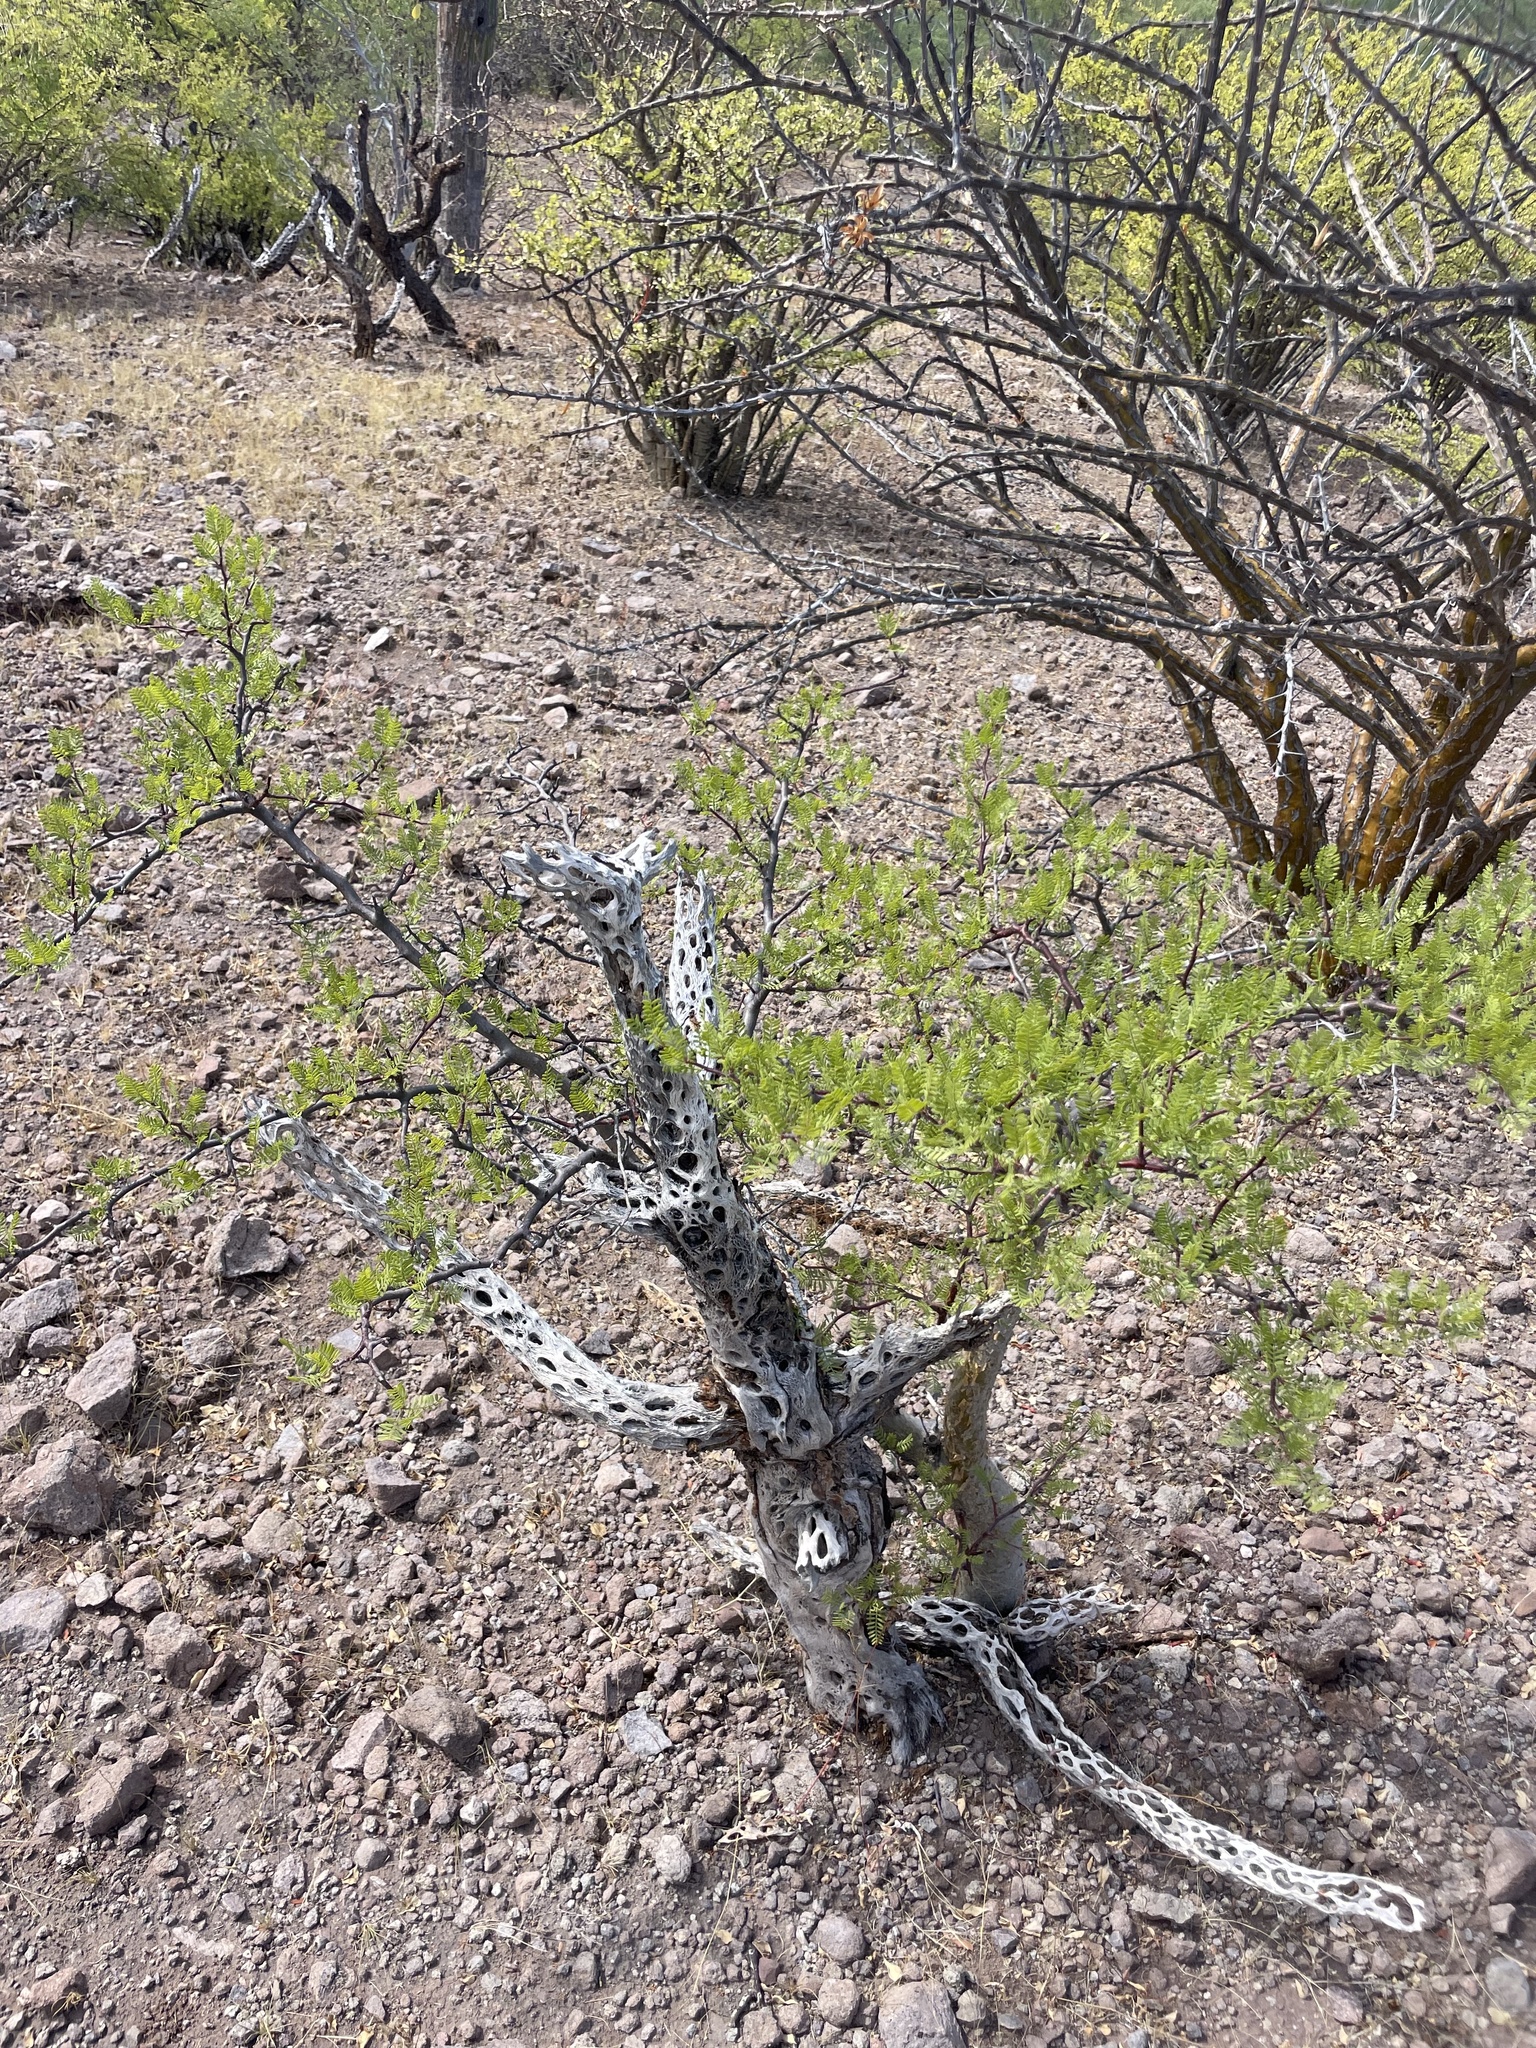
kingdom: Plantae
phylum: Tracheophyta
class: Magnoliopsida
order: Sapindales
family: Burseraceae
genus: Bursera
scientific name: Bursera microphylla
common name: Elephant tree
